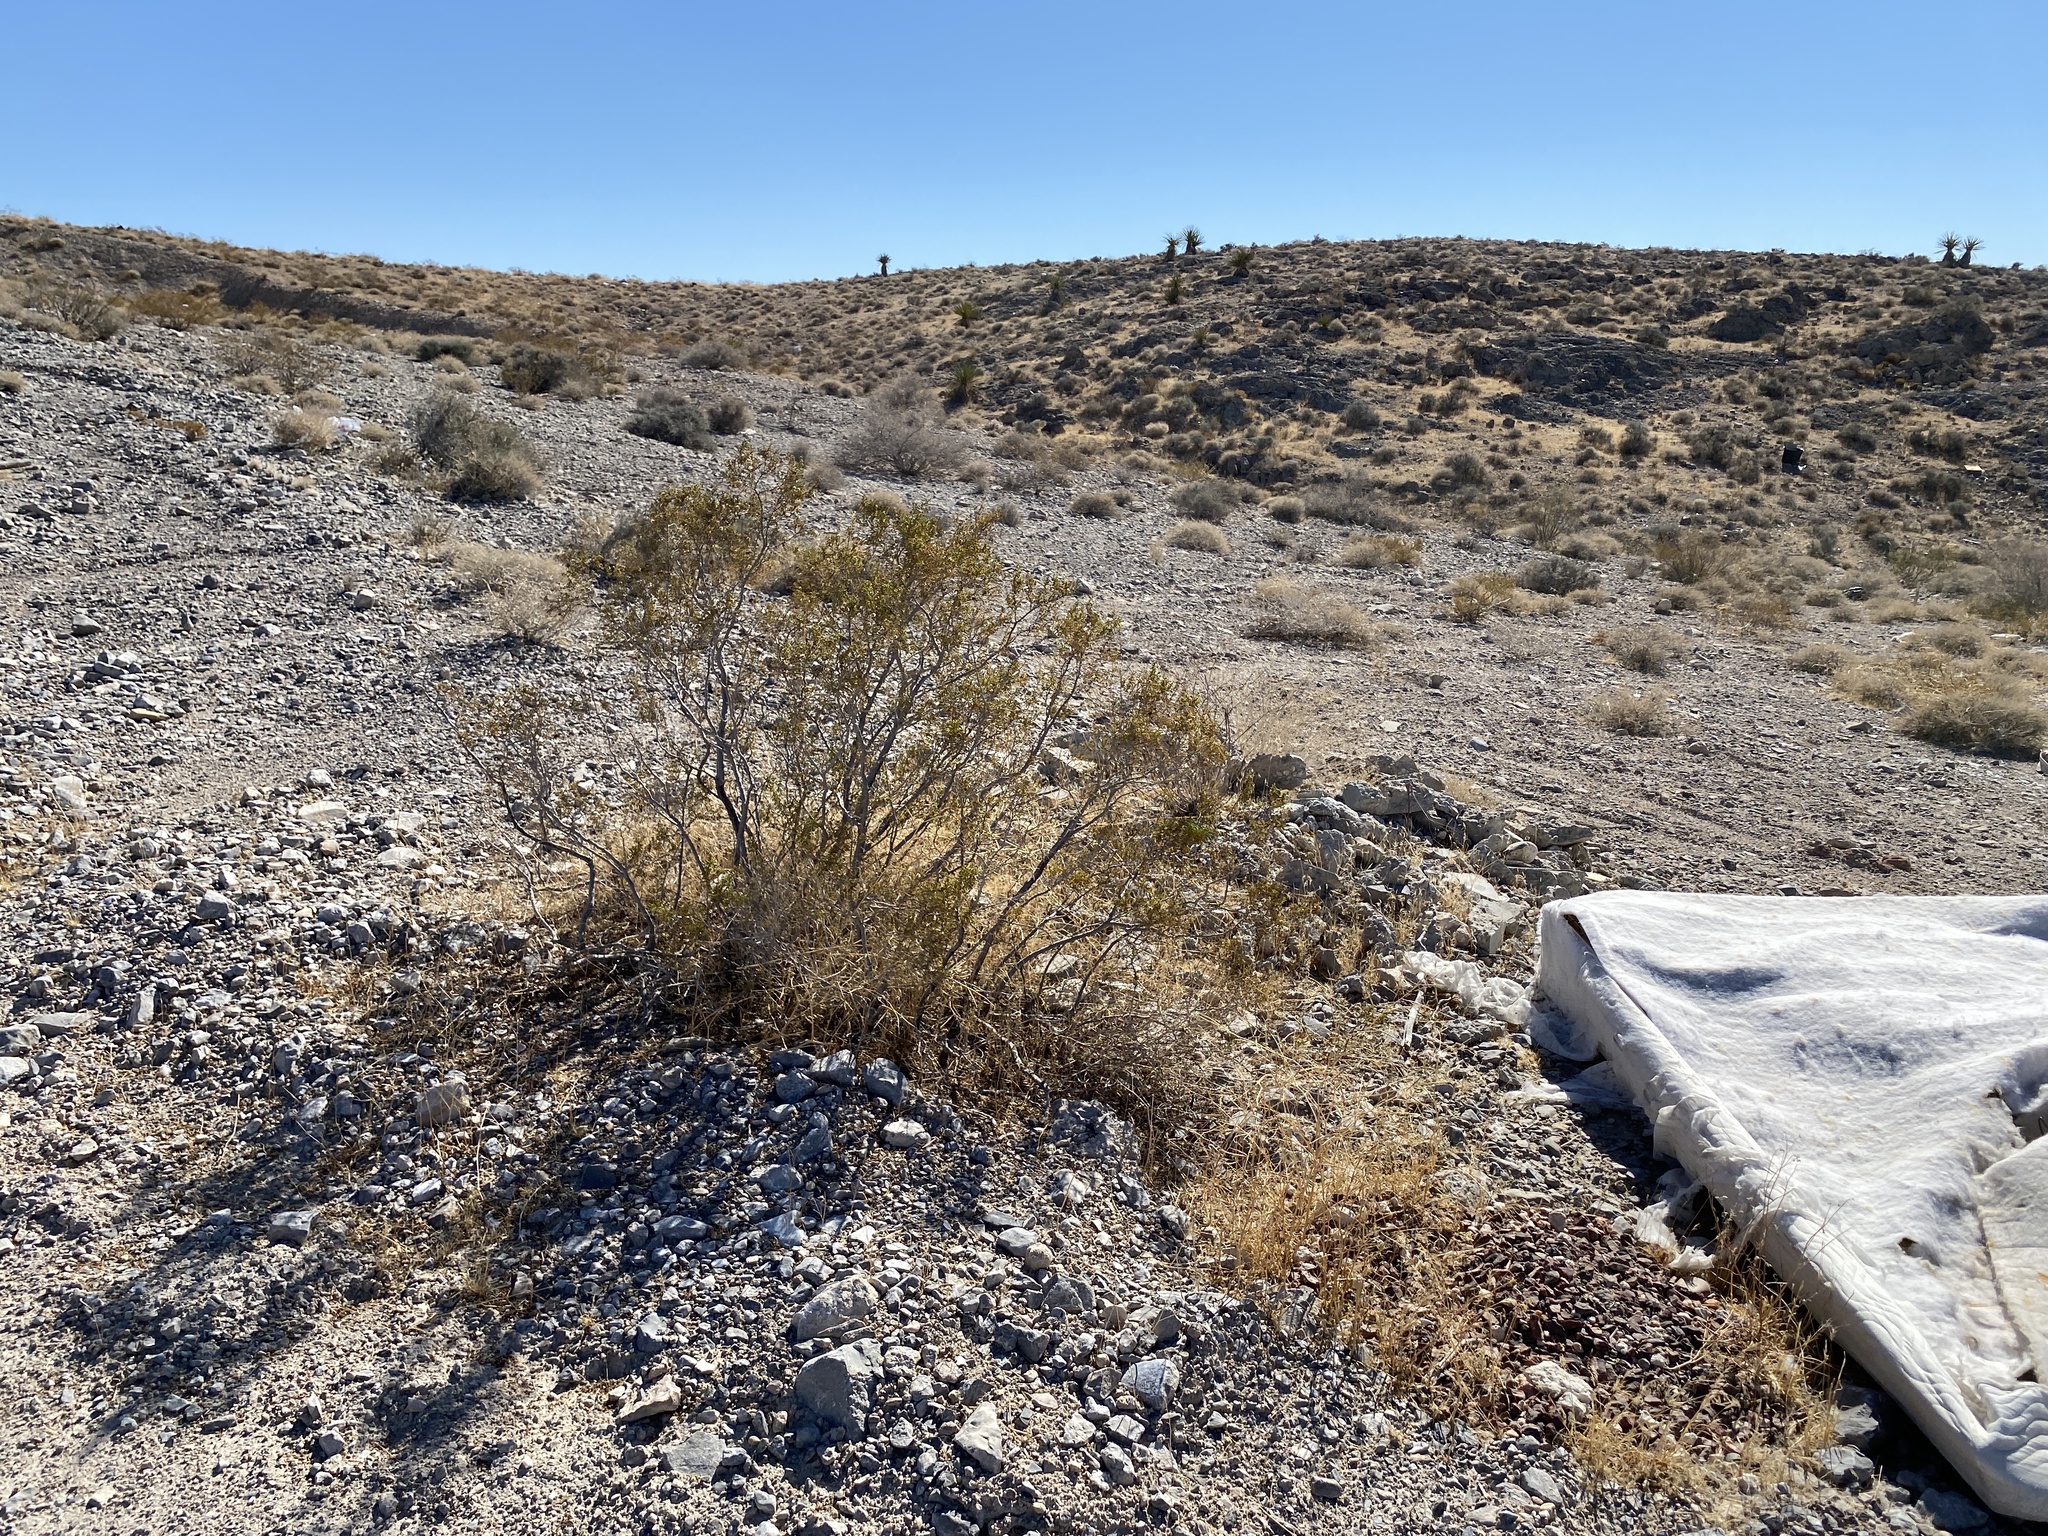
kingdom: Plantae
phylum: Tracheophyta
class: Magnoliopsida
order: Zygophyllales
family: Zygophyllaceae
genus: Larrea
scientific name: Larrea tridentata
